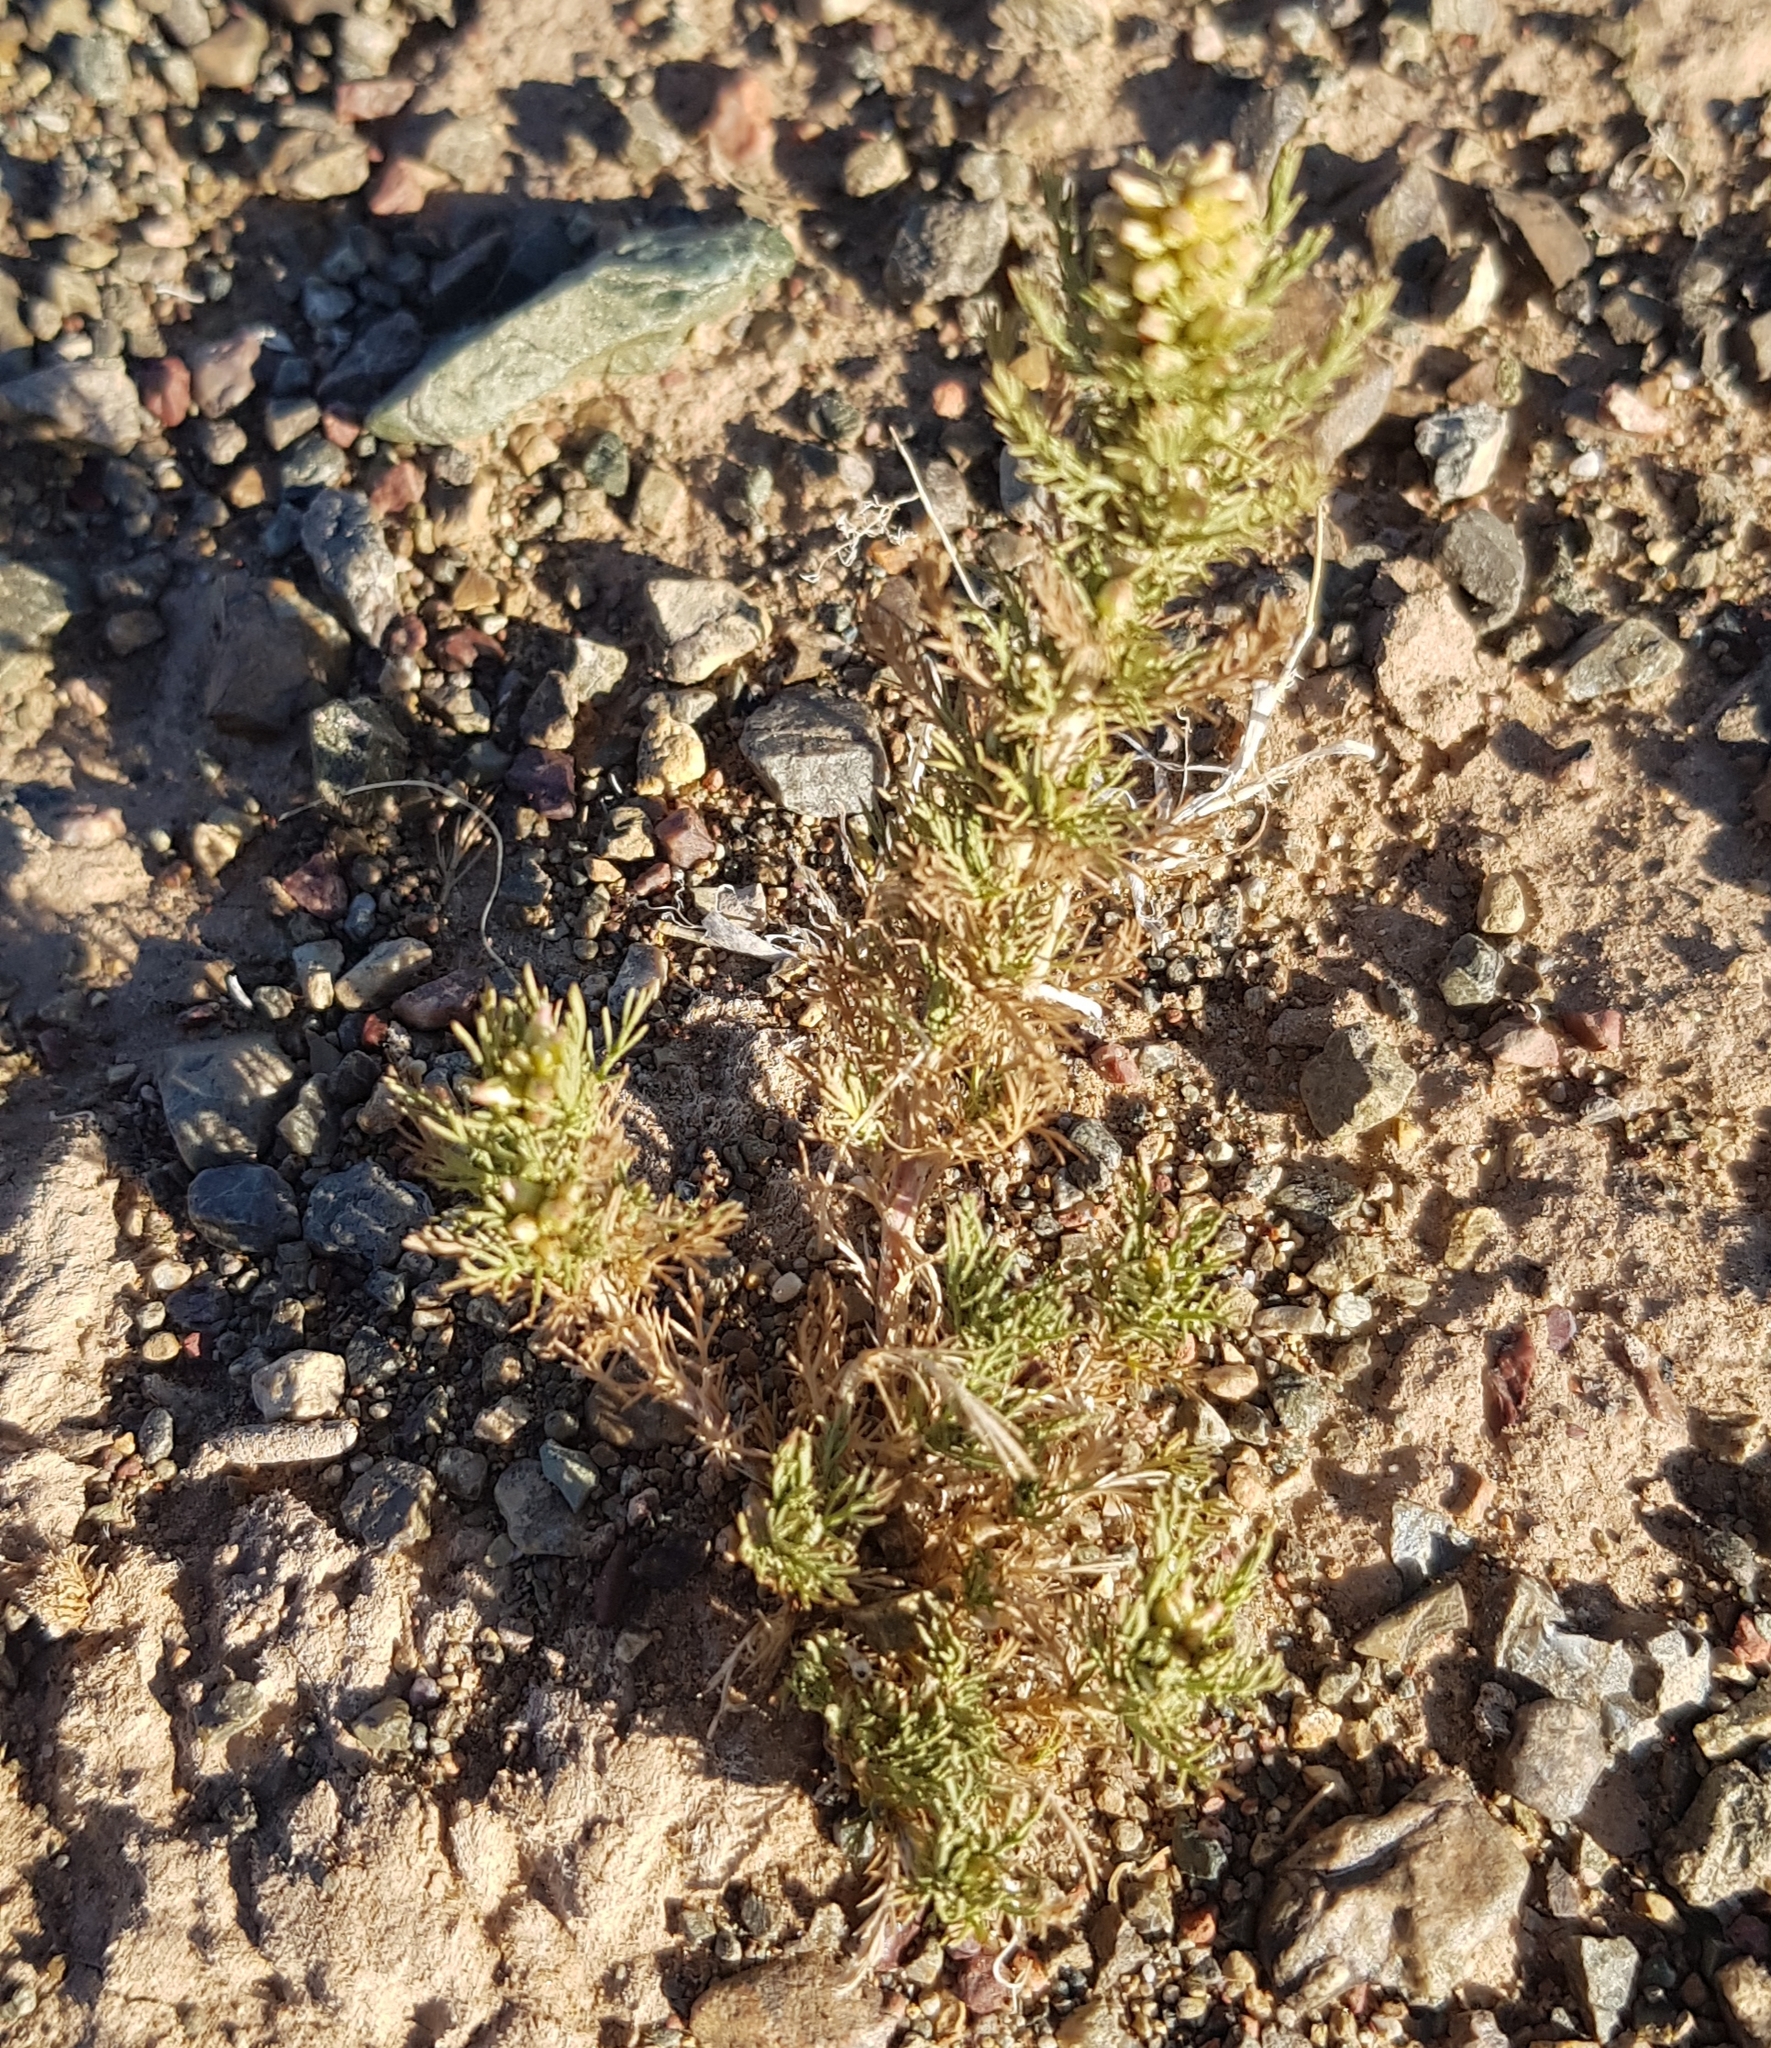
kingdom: Plantae
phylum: Tracheophyta
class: Magnoliopsida
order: Asterales
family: Asteraceae
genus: Neopallasia
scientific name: Neopallasia pectinata
